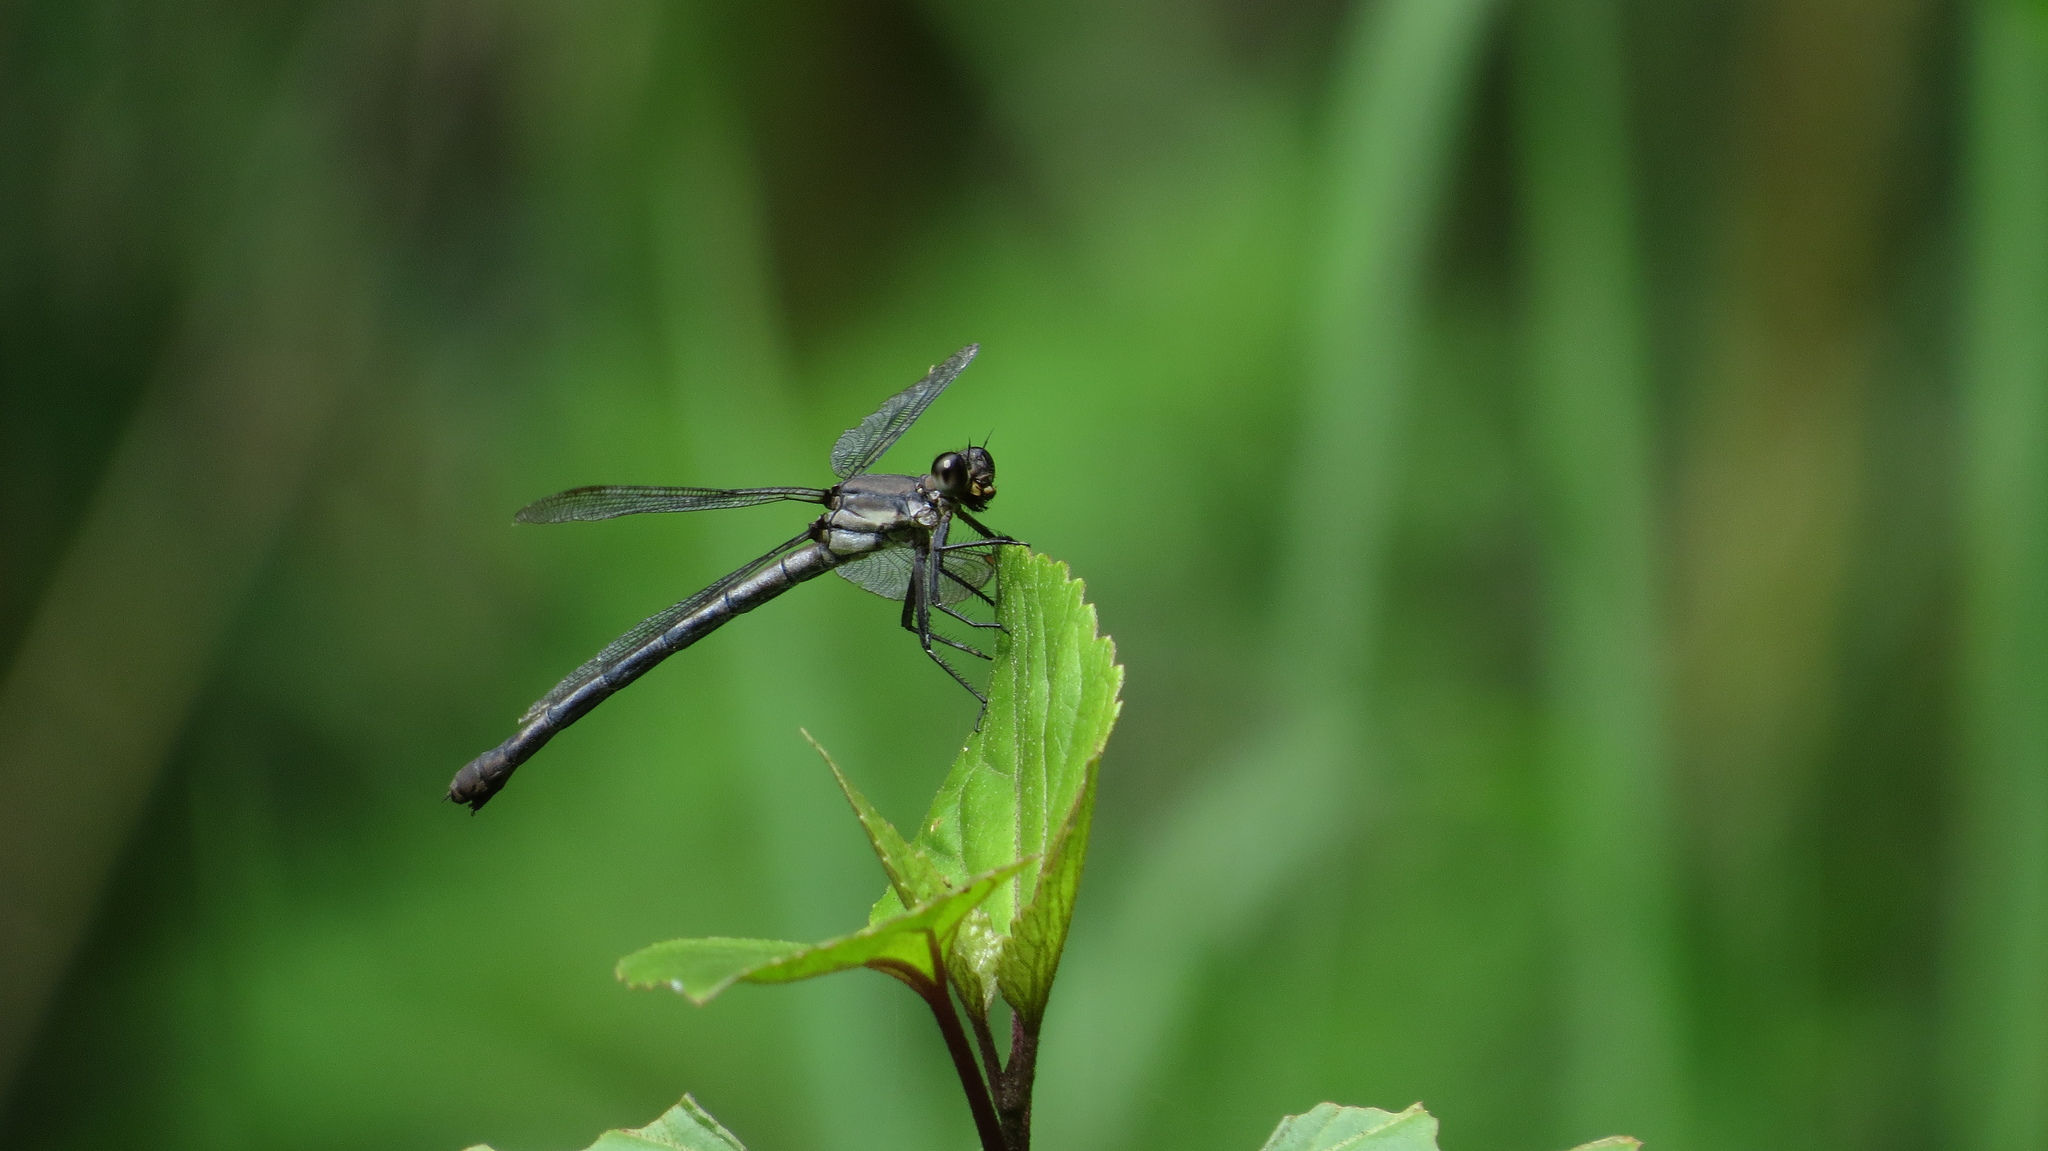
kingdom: Animalia
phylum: Arthropoda
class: Insecta
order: Odonata
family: Lestoideidae
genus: Diphlebia
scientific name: Diphlebia coerulescens
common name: Sapphire rockmaster
